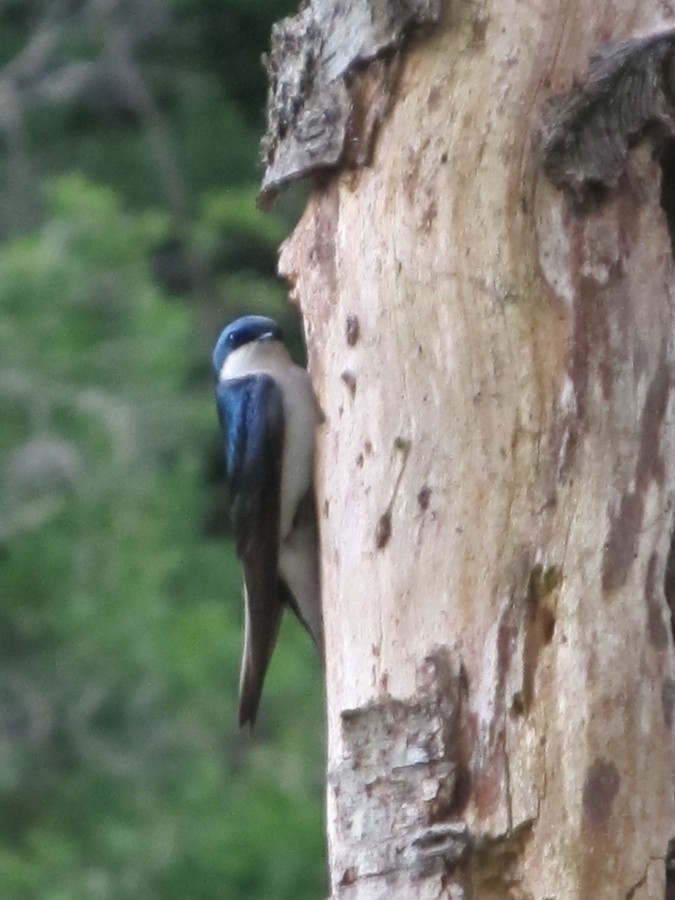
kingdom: Animalia
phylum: Chordata
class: Aves
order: Passeriformes
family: Hirundinidae
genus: Tachycineta
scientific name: Tachycineta bicolor
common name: Tree swallow
